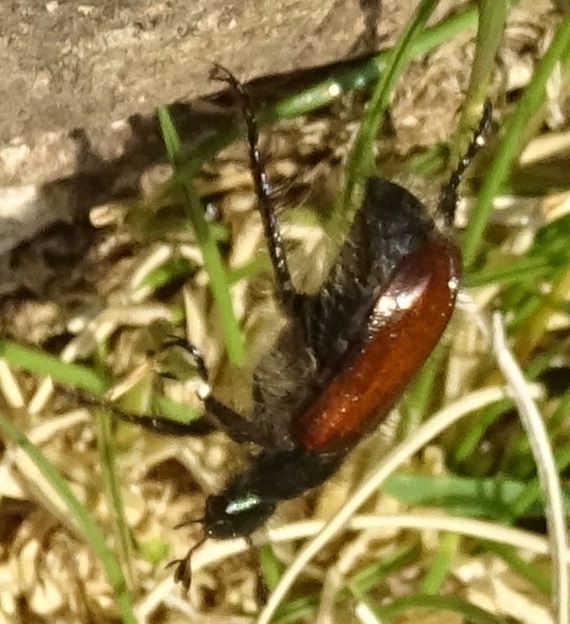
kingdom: Animalia
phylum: Arthropoda
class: Insecta
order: Coleoptera
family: Scarabaeidae
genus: Phyllopertha
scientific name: Phyllopertha horticola
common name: Garden chafer
